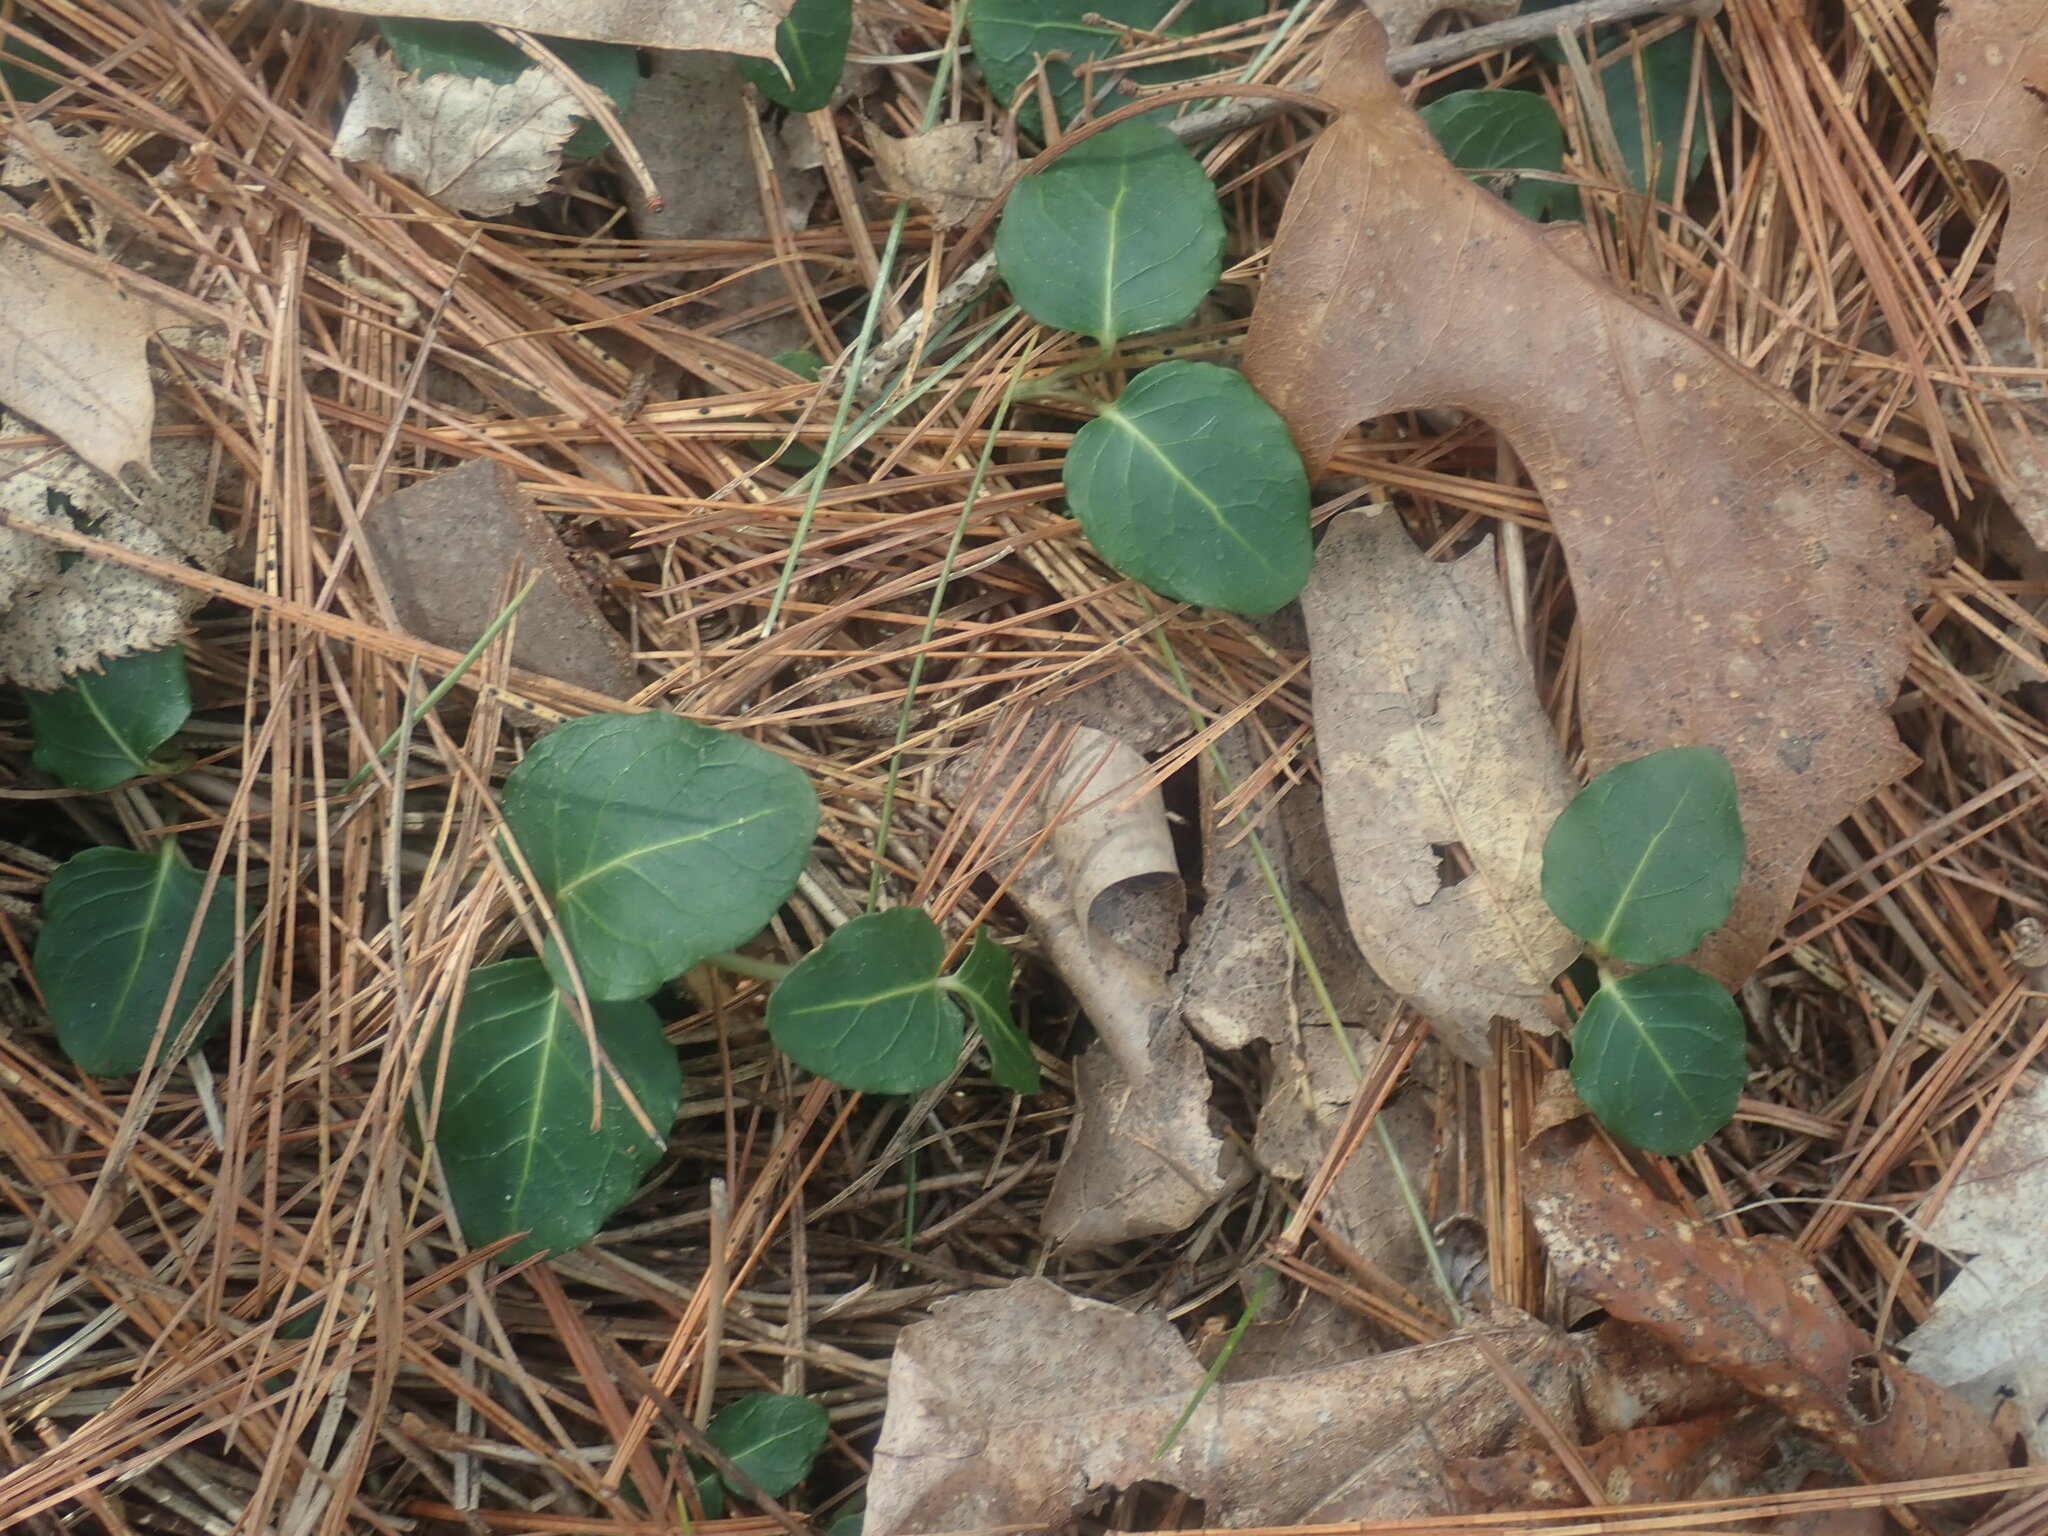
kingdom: Plantae
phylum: Tracheophyta
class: Magnoliopsida
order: Gentianales
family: Rubiaceae
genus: Mitchella
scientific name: Mitchella repens
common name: Partridge-berry
